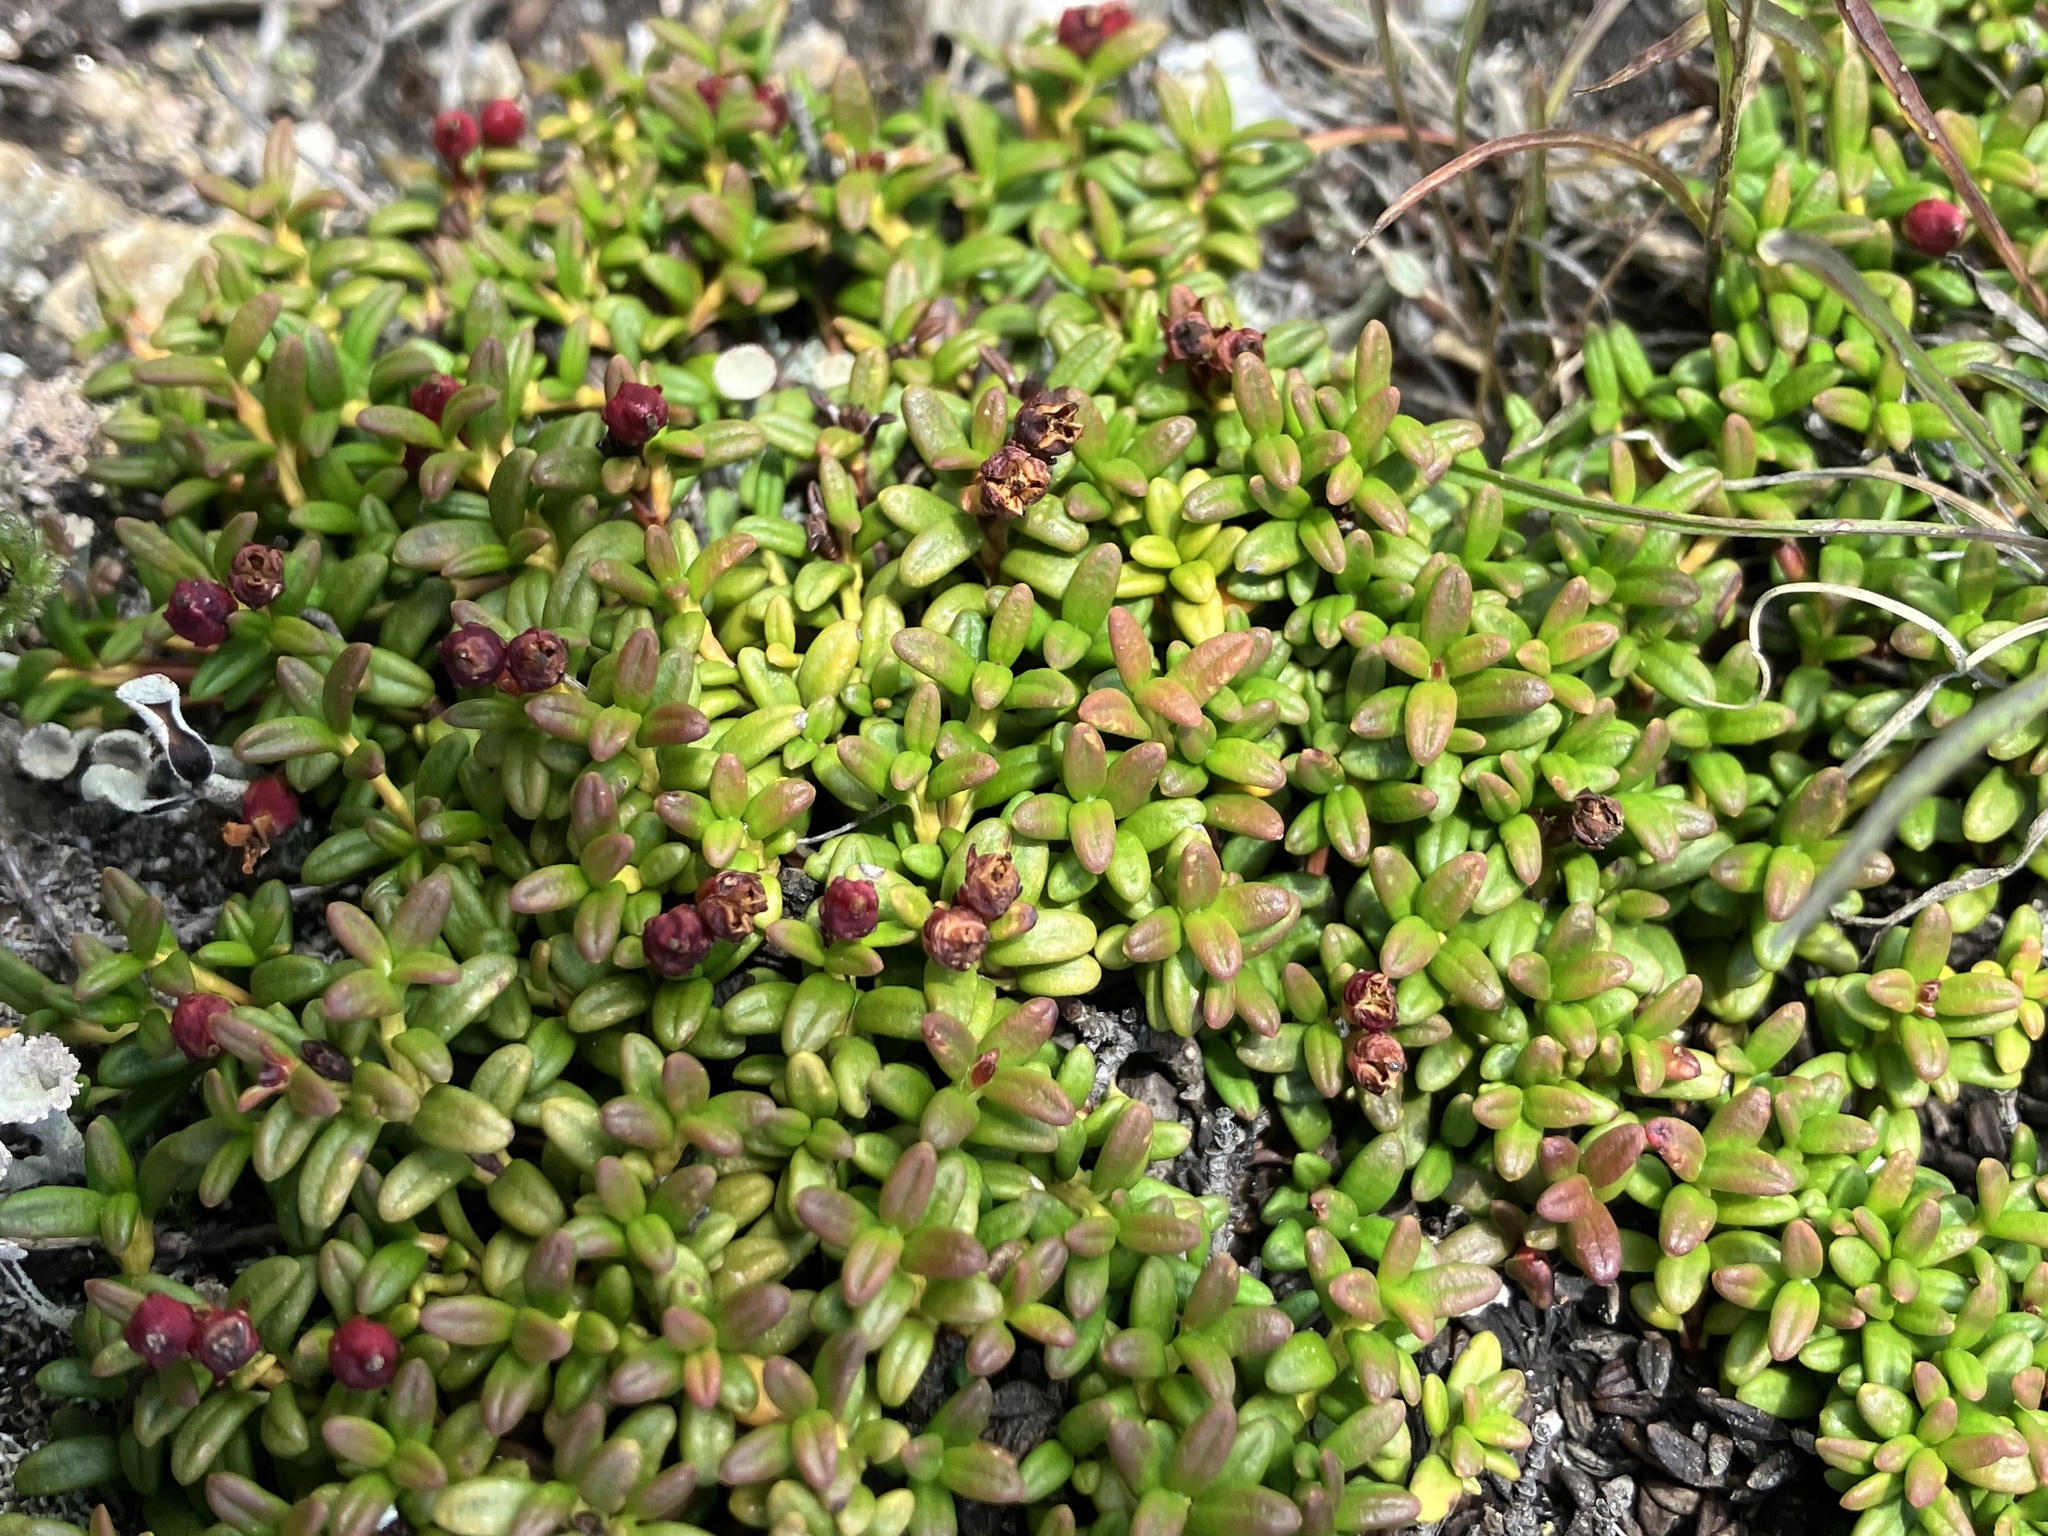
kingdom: Plantae
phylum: Tracheophyta
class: Magnoliopsida
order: Ericales
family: Ericaceae
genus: Kalmia
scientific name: Kalmia procumbens
